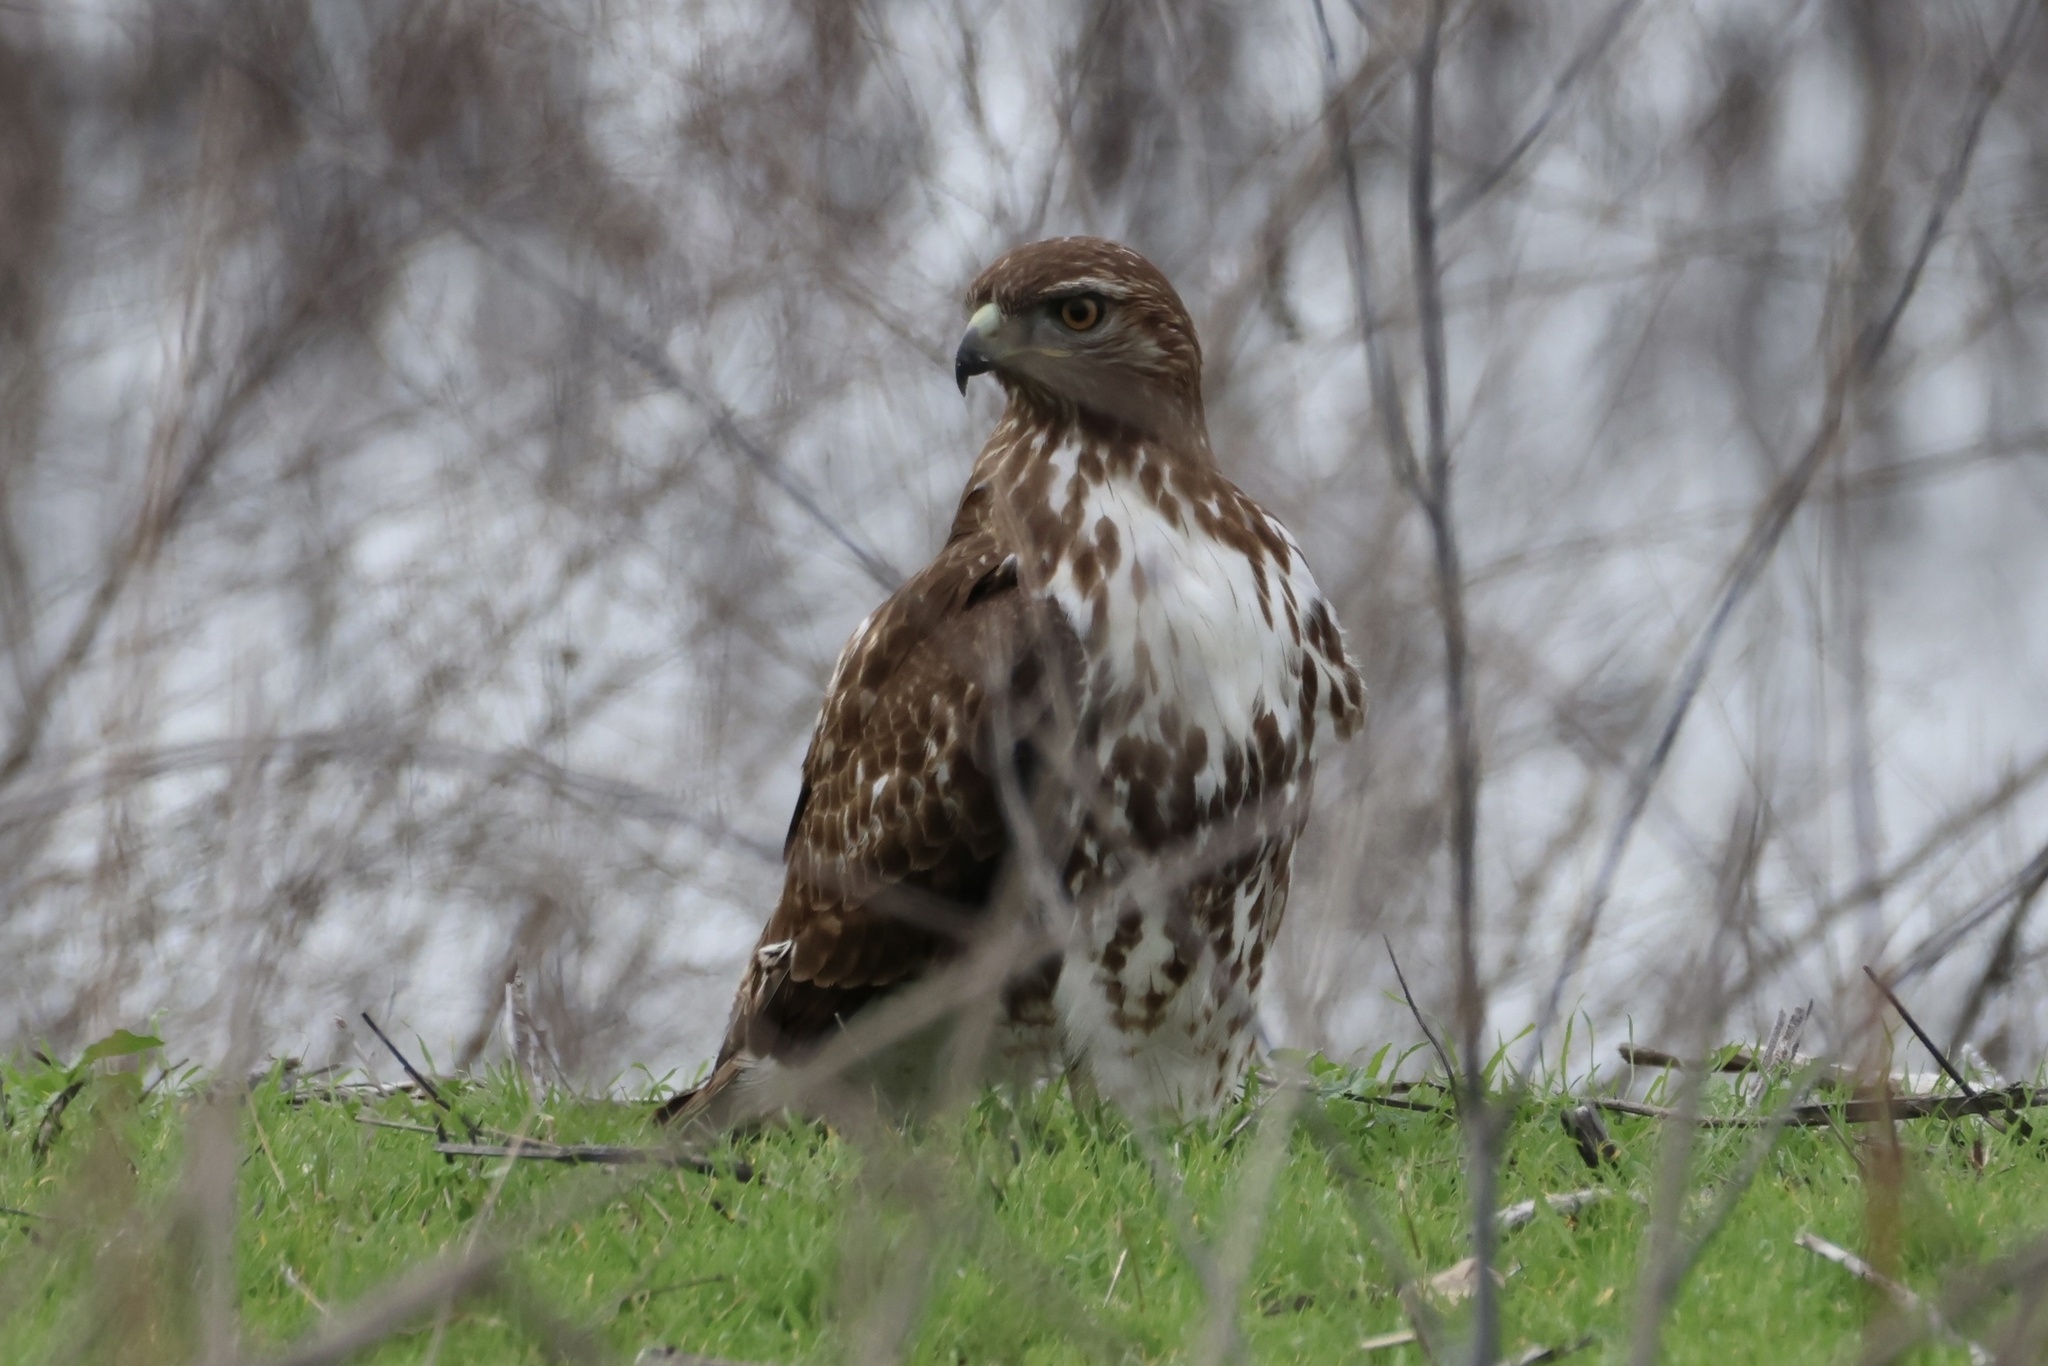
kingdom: Animalia
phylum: Chordata
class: Aves
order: Accipitriformes
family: Accipitridae
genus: Buteo
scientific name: Buteo jamaicensis
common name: Red-tailed hawk
